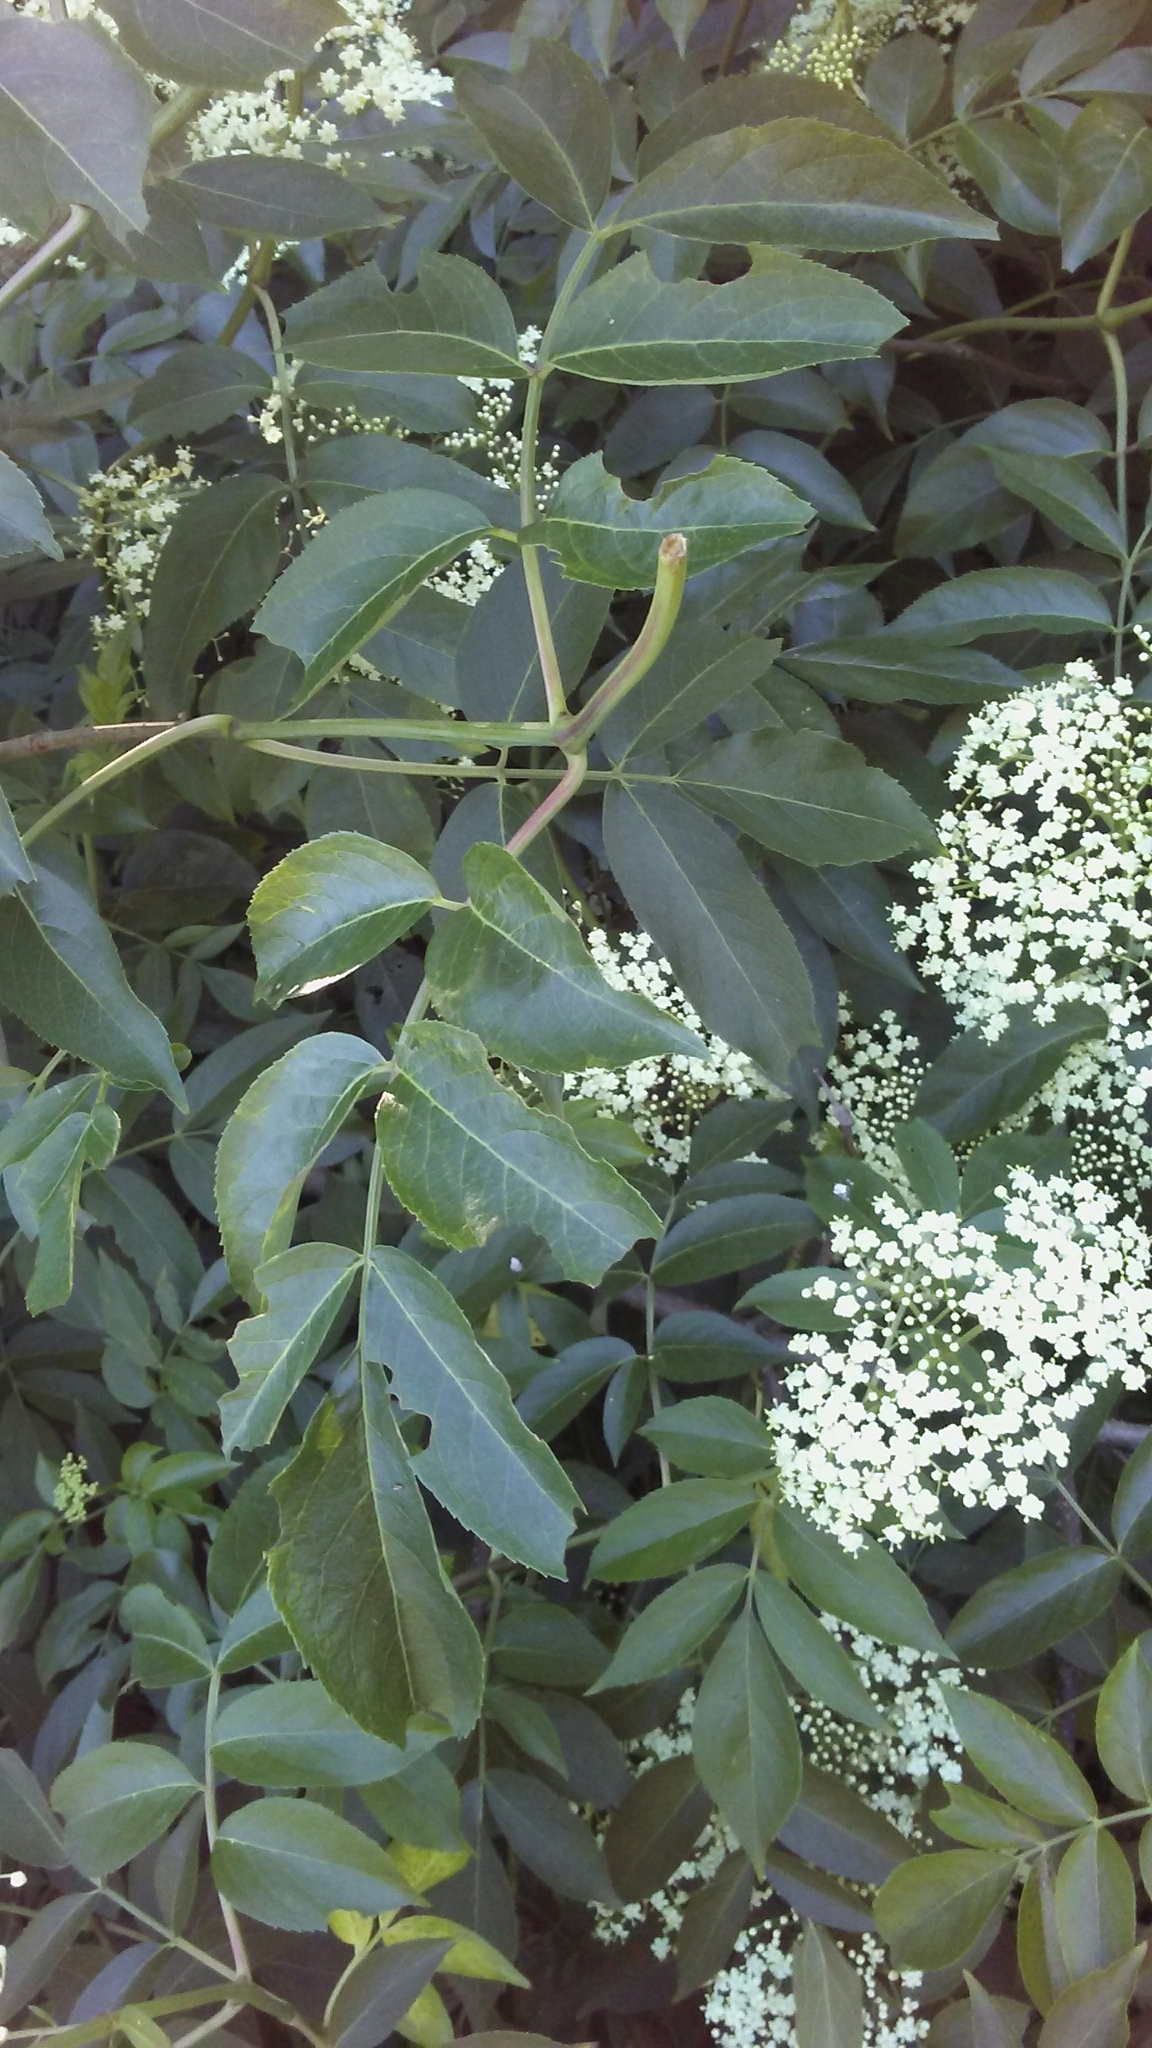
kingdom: Plantae
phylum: Tracheophyta
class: Magnoliopsida
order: Dipsacales
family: Viburnaceae
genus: Sambucus
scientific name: Sambucus canadensis
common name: American elder
